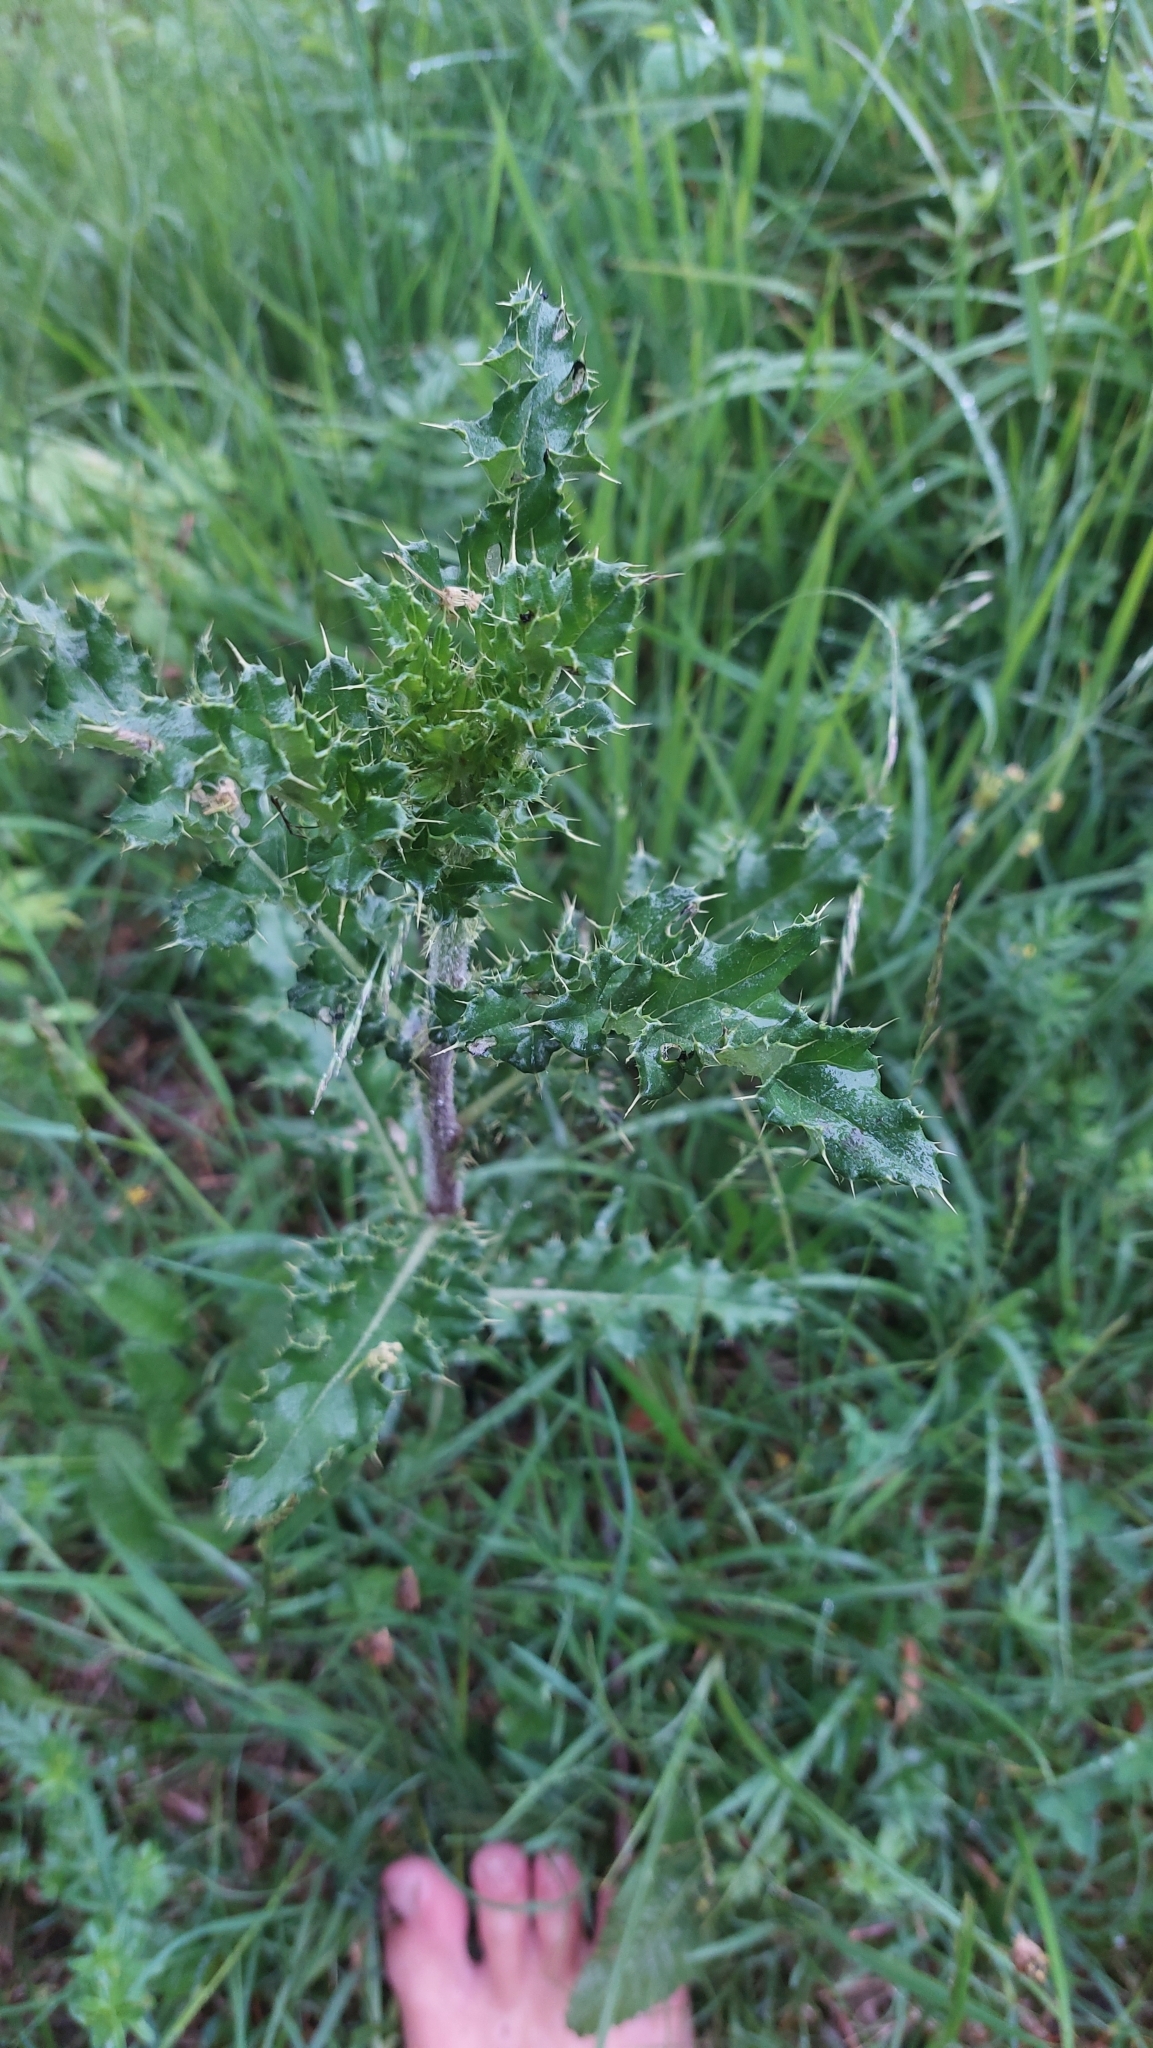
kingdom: Plantae
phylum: Tracheophyta
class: Magnoliopsida
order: Asterales
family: Asteraceae
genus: Cirsium
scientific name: Cirsium arvense
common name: Creeping thistle
